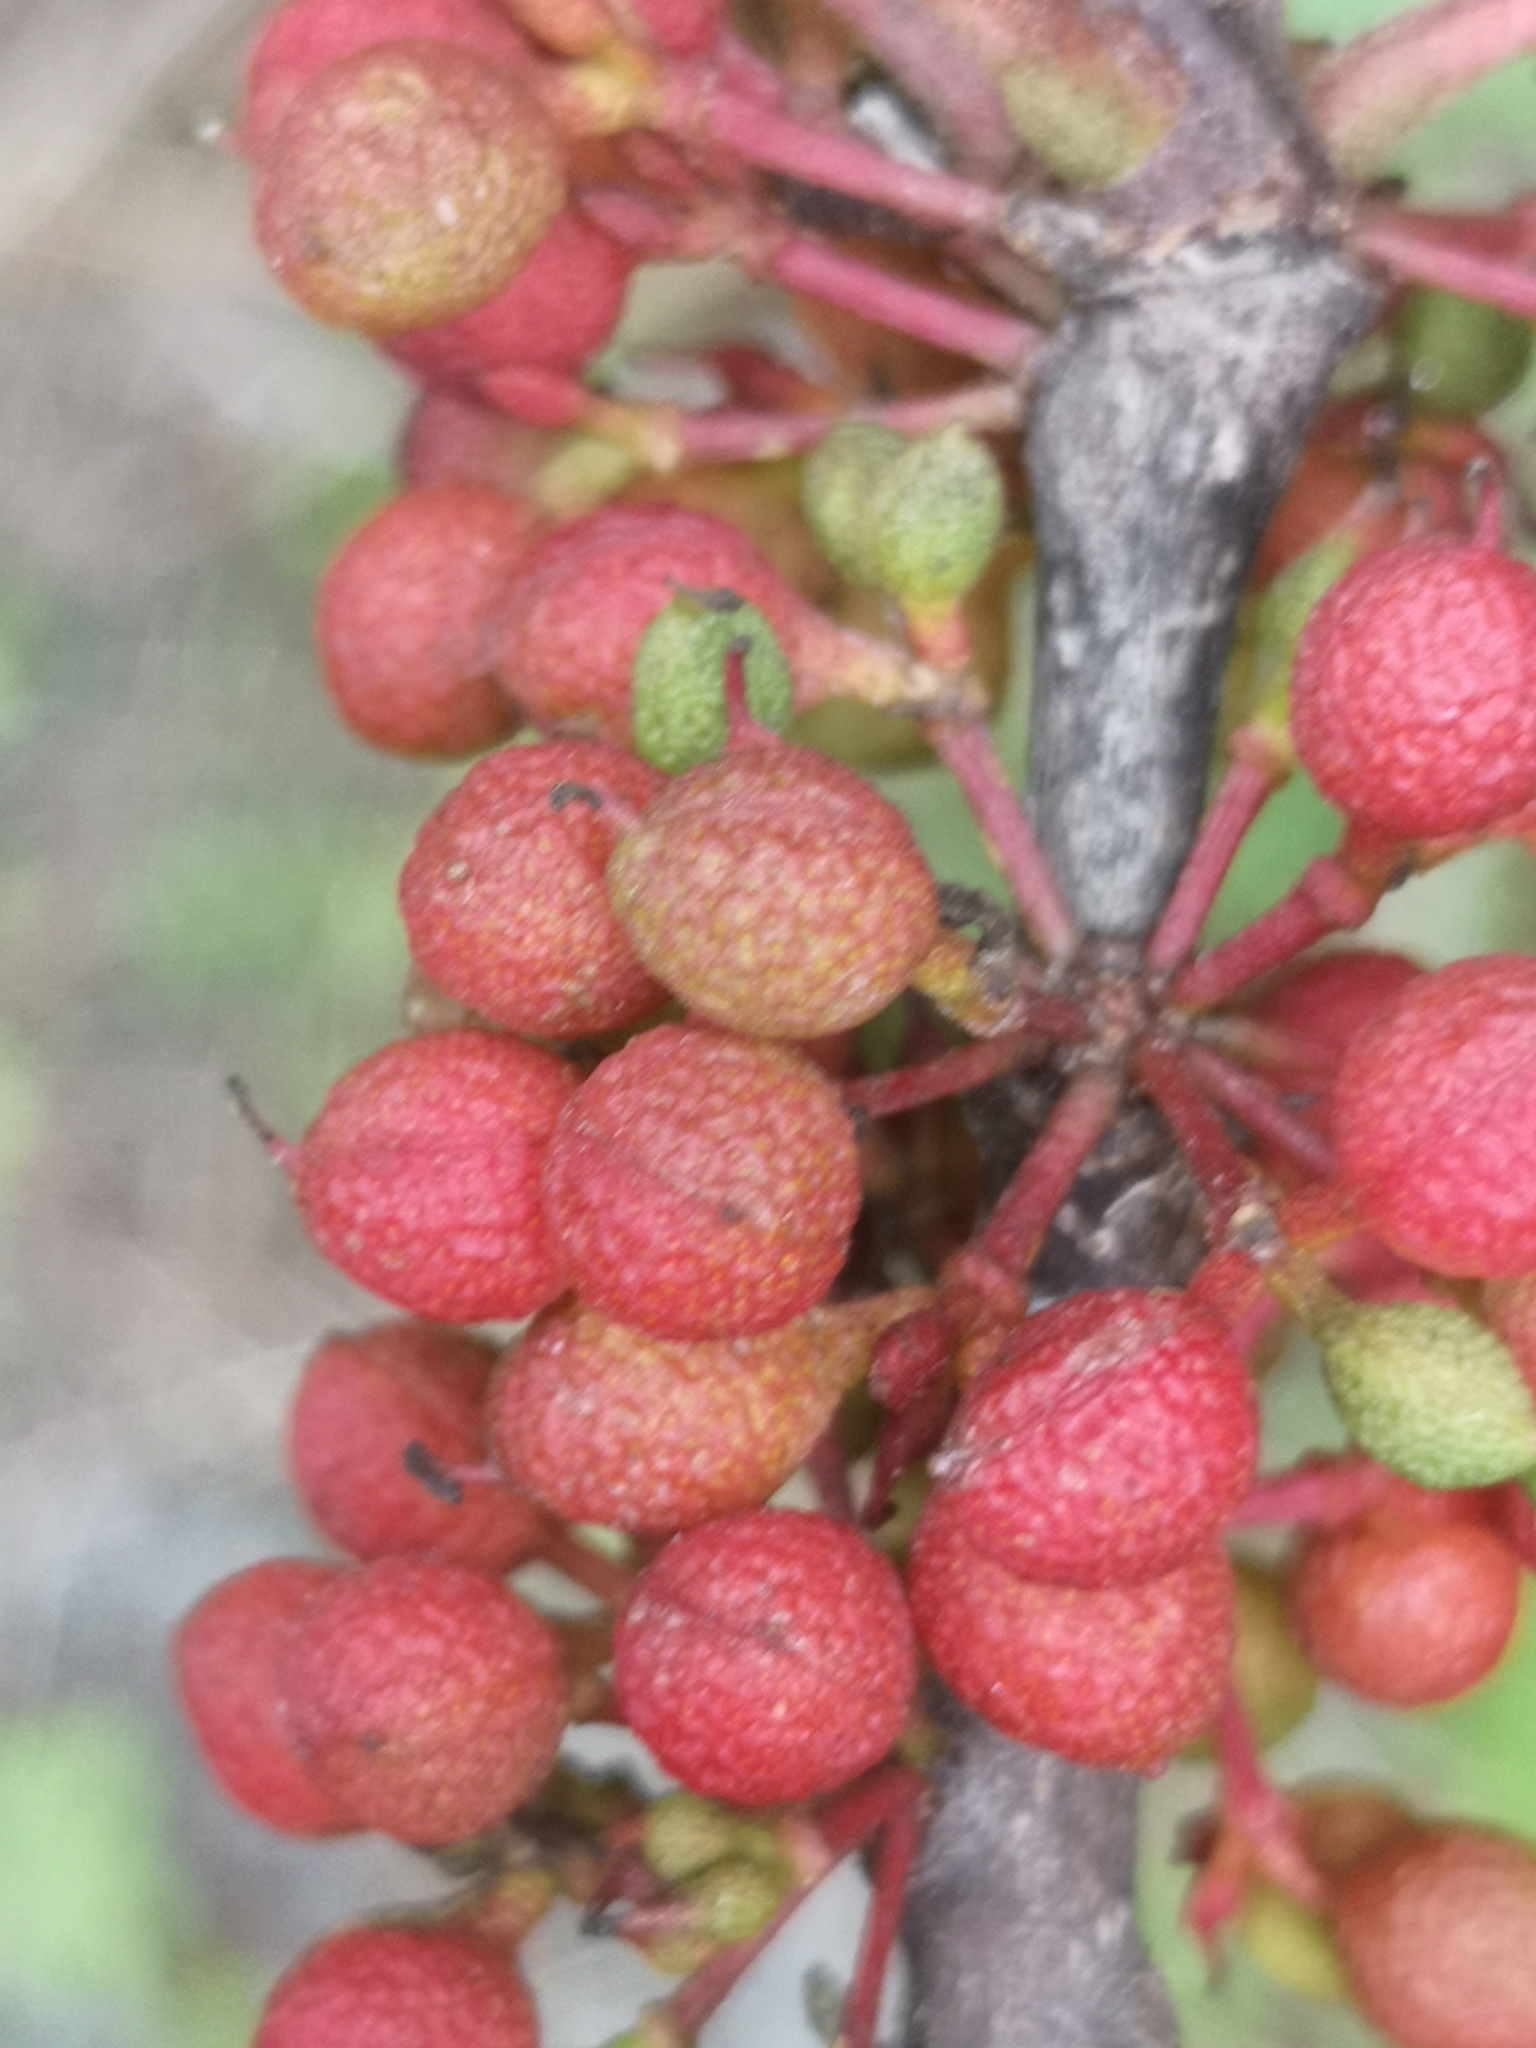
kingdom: Plantae
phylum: Tracheophyta
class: Magnoliopsida
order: Sapindales
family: Rutaceae
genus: Zanthoxylum
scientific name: Zanthoxylum americanum
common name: Northern prickly-ash
